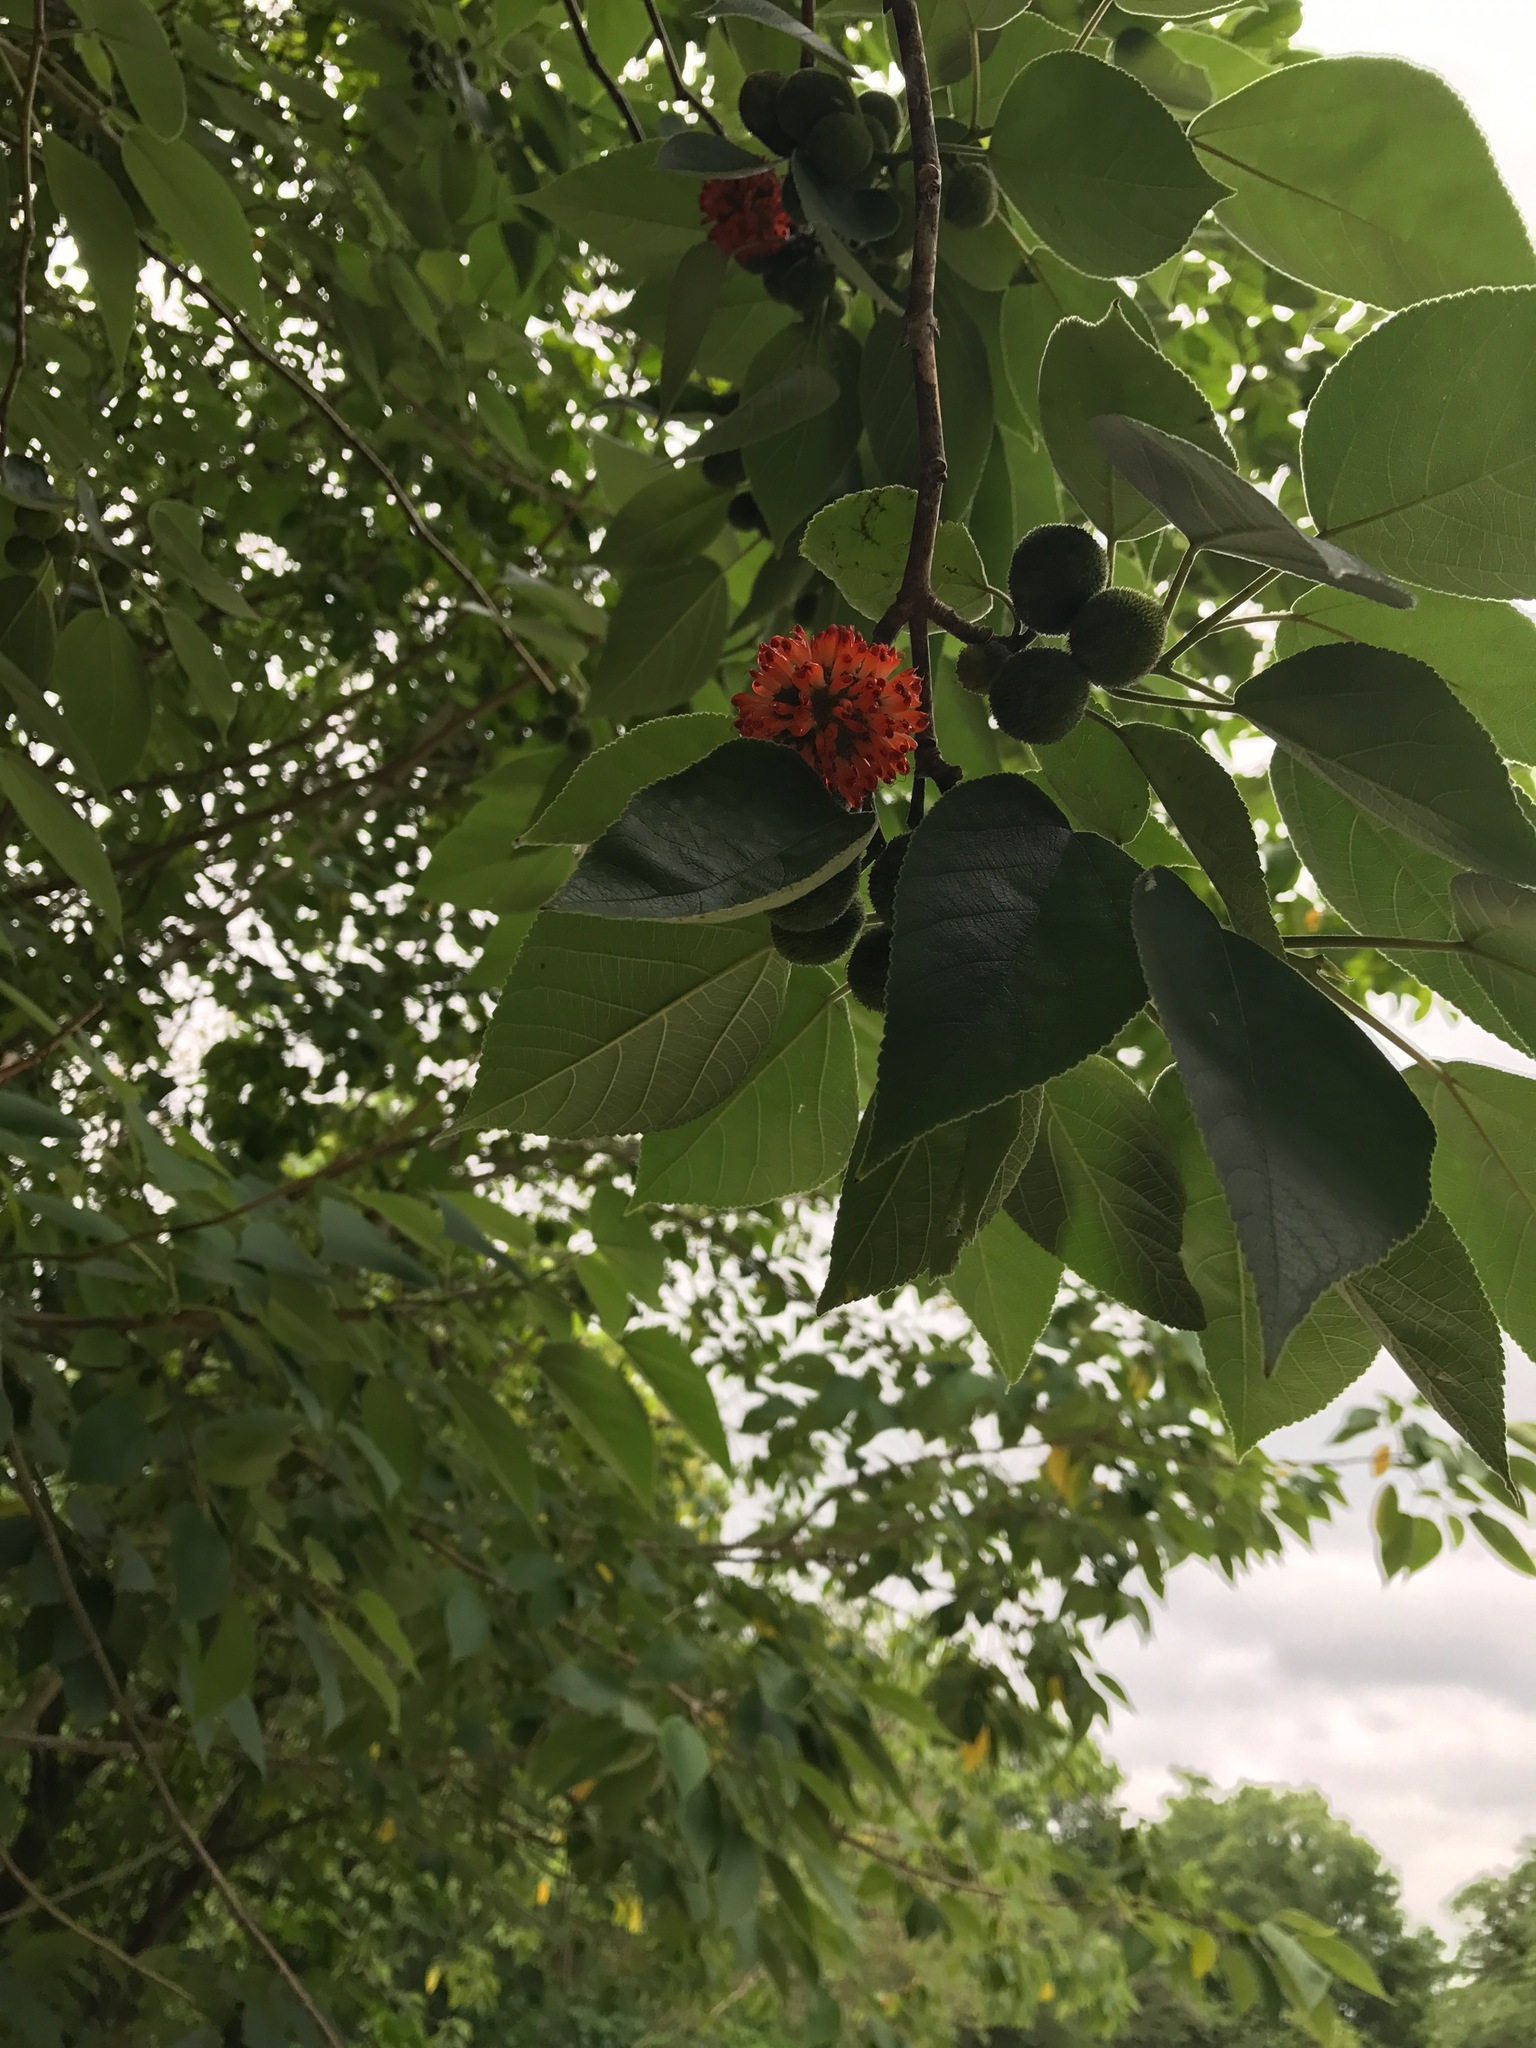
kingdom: Plantae
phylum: Tracheophyta
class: Magnoliopsida
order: Rosales
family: Moraceae
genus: Broussonetia
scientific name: Broussonetia papyrifera
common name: Paper mulberry
